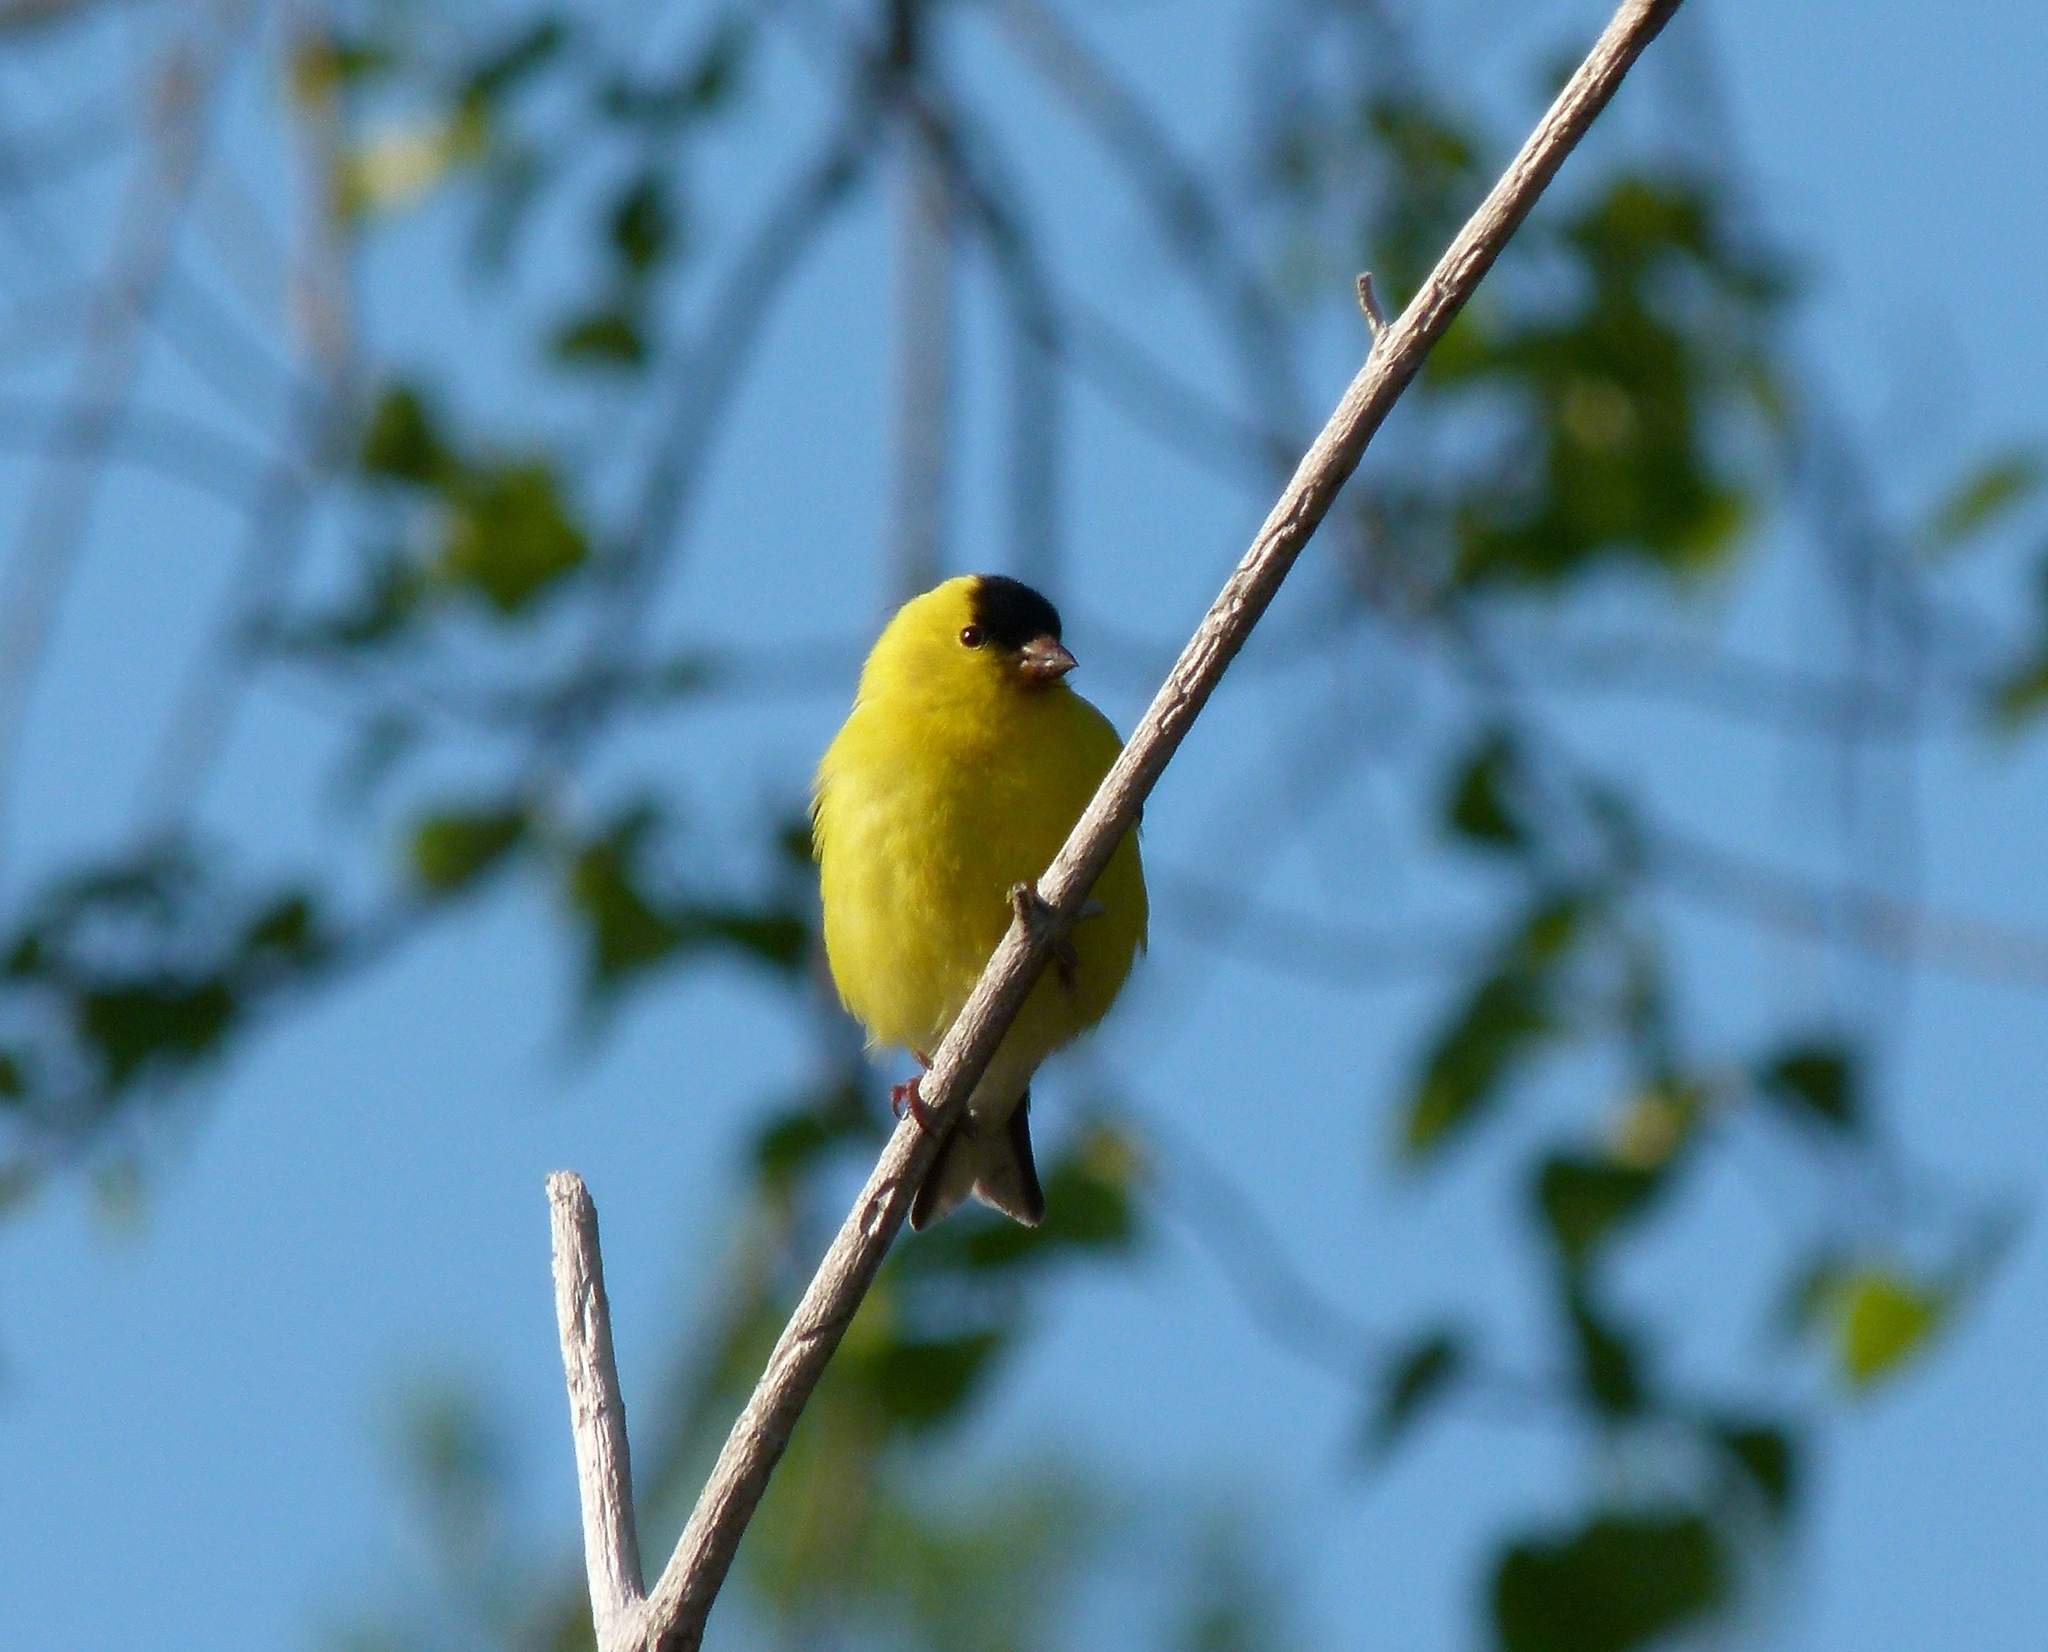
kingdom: Animalia
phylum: Chordata
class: Aves
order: Passeriformes
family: Fringillidae
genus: Spinus
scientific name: Spinus tristis
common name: American goldfinch
